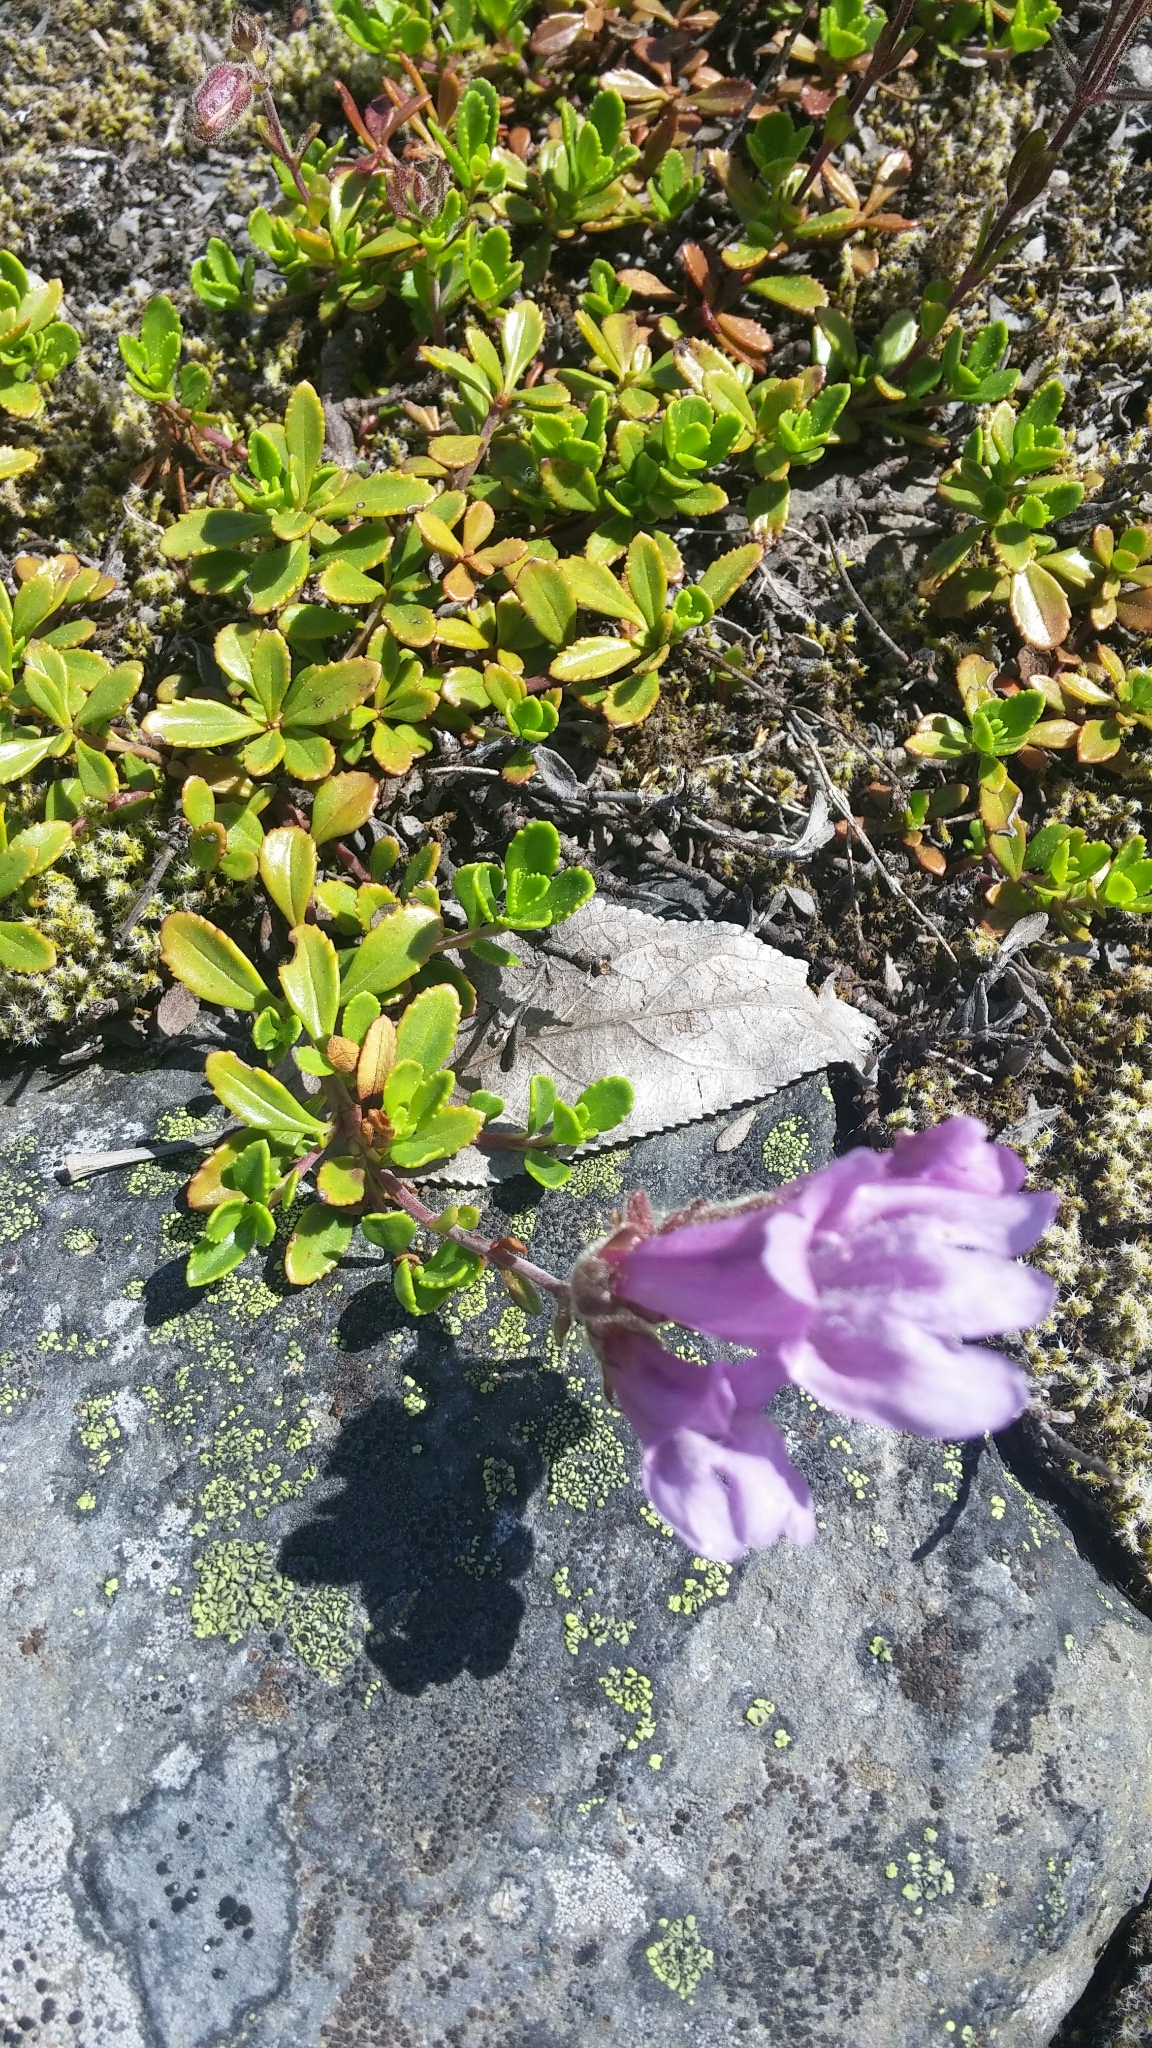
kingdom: Plantae
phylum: Tracheophyta
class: Magnoliopsida
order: Lamiales
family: Plantaginaceae
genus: Penstemon
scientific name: Penstemon davidsonii
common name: Davidson's penstemon
